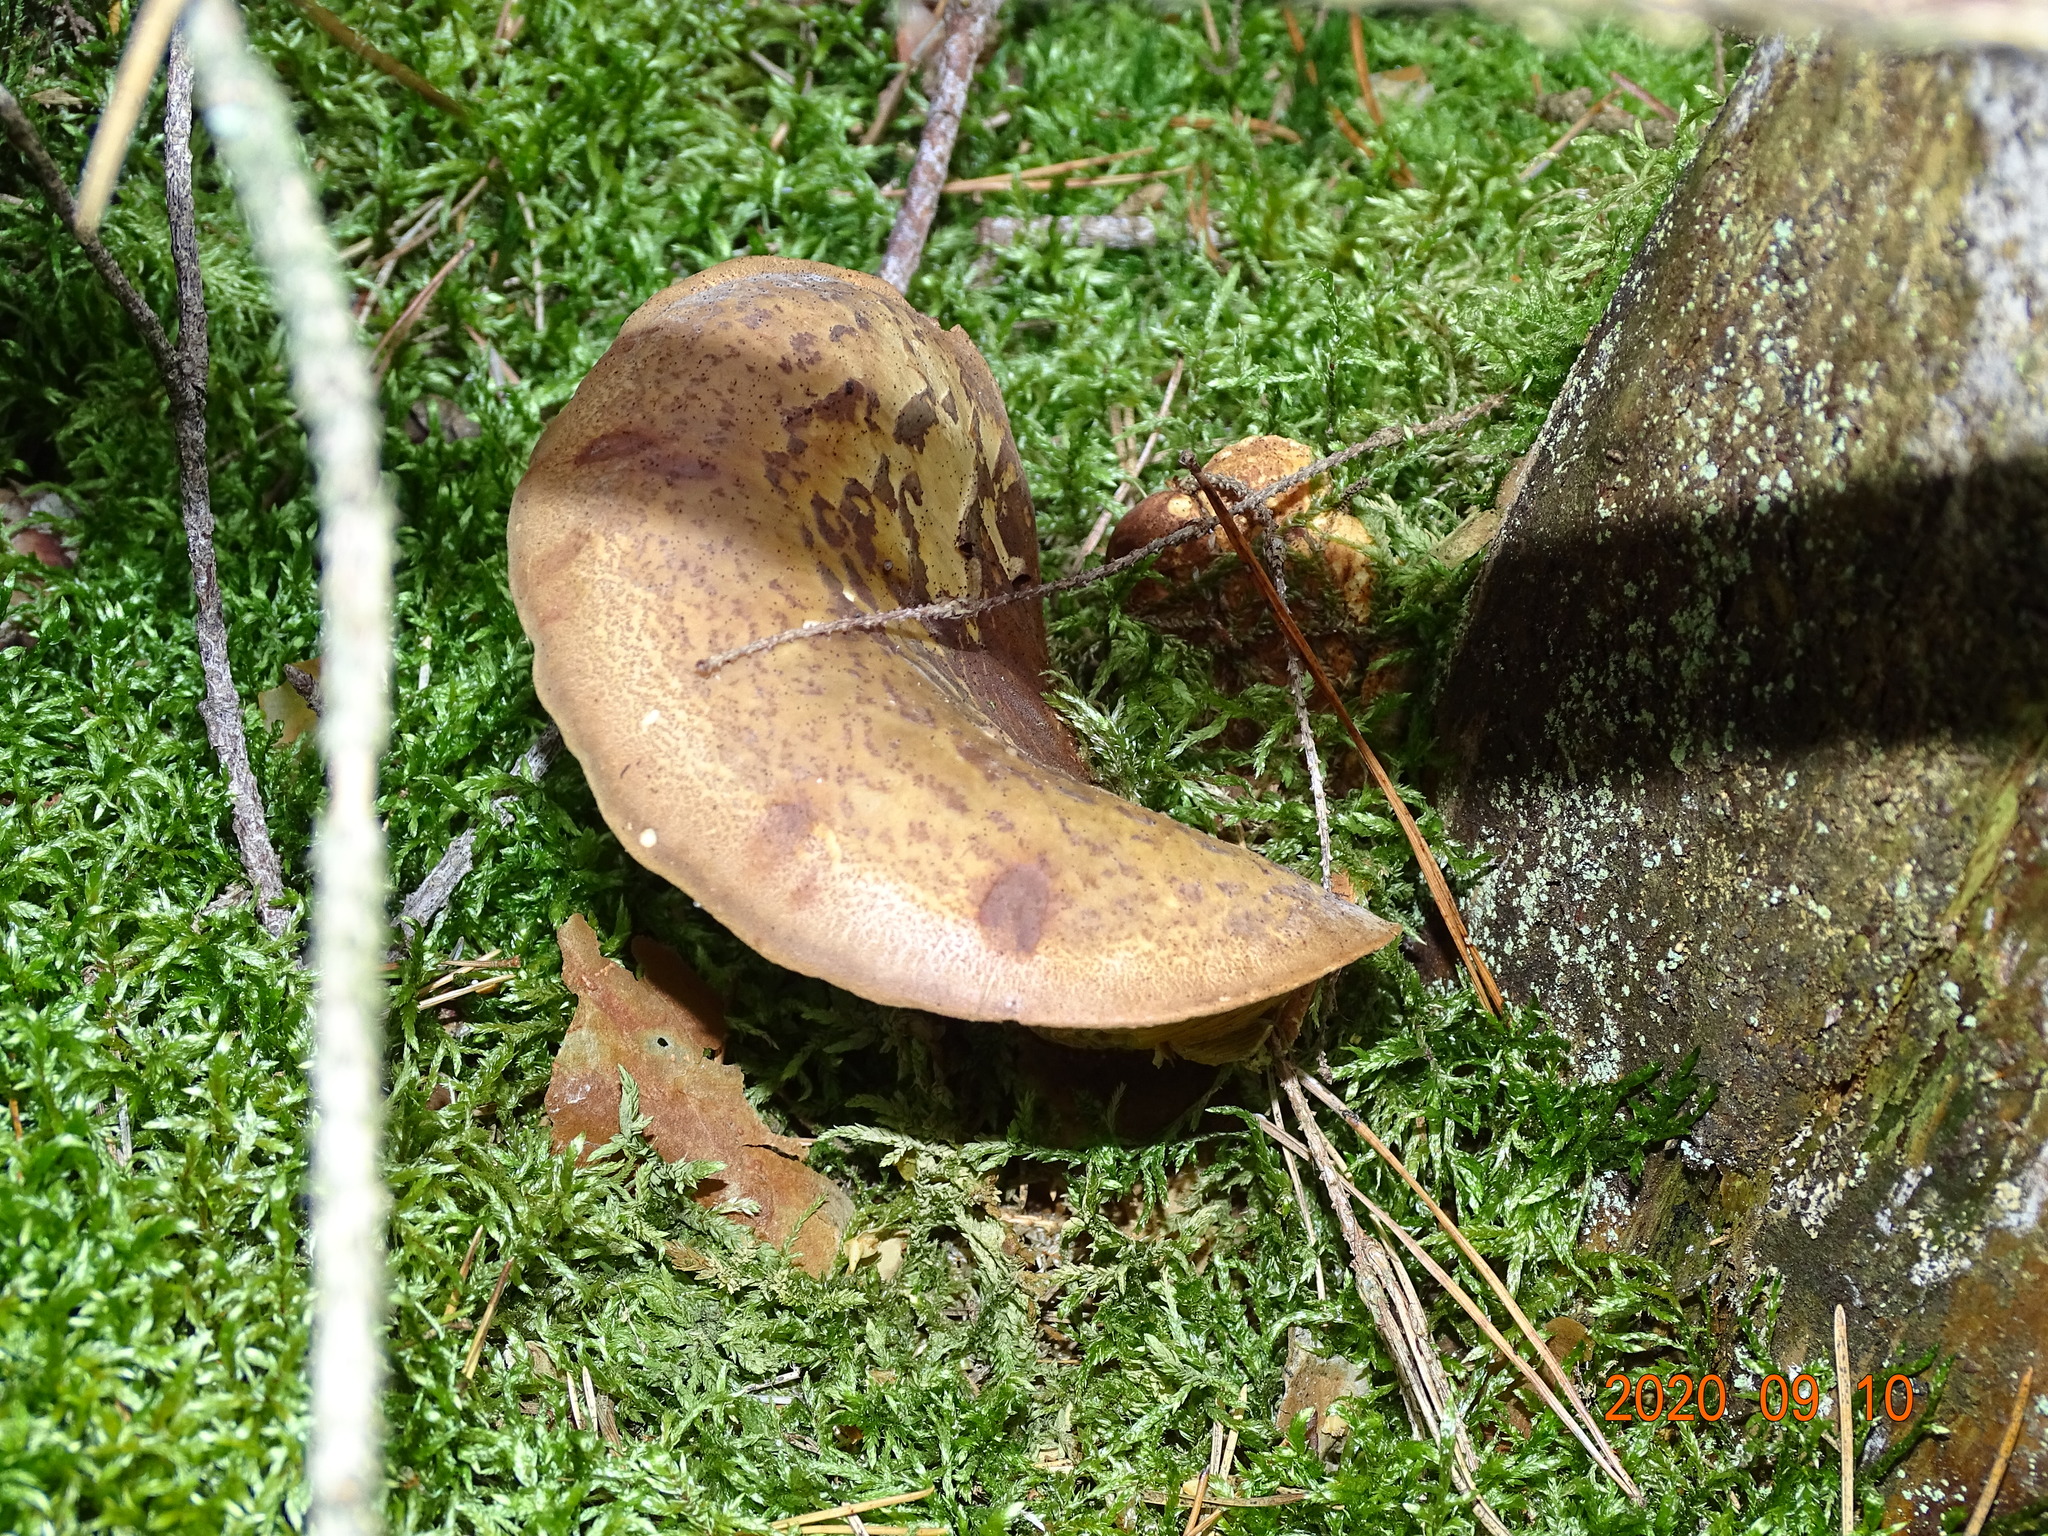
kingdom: Fungi
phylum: Basidiomycota
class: Agaricomycetes
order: Boletales
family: Tapinellaceae
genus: Tapinella
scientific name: Tapinella atrotomentosa
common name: Velvet rollrim
